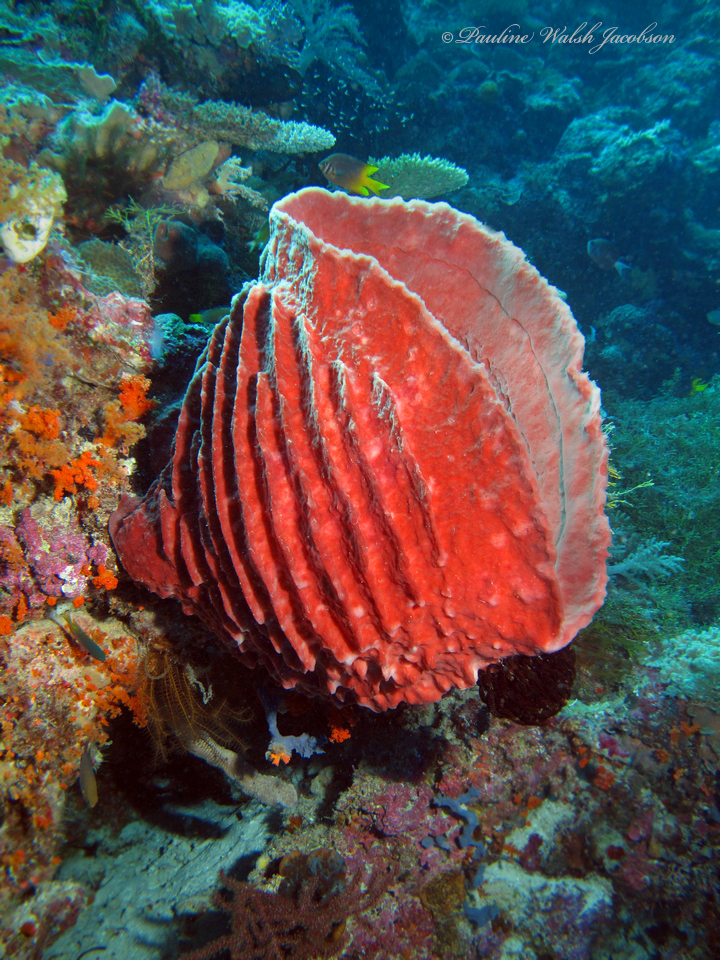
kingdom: Animalia
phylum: Porifera
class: Demospongiae
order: Haplosclerida
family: Petrosiidae
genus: Xestospongia
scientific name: Xestospongia testudinaria
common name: Barrel sponge
